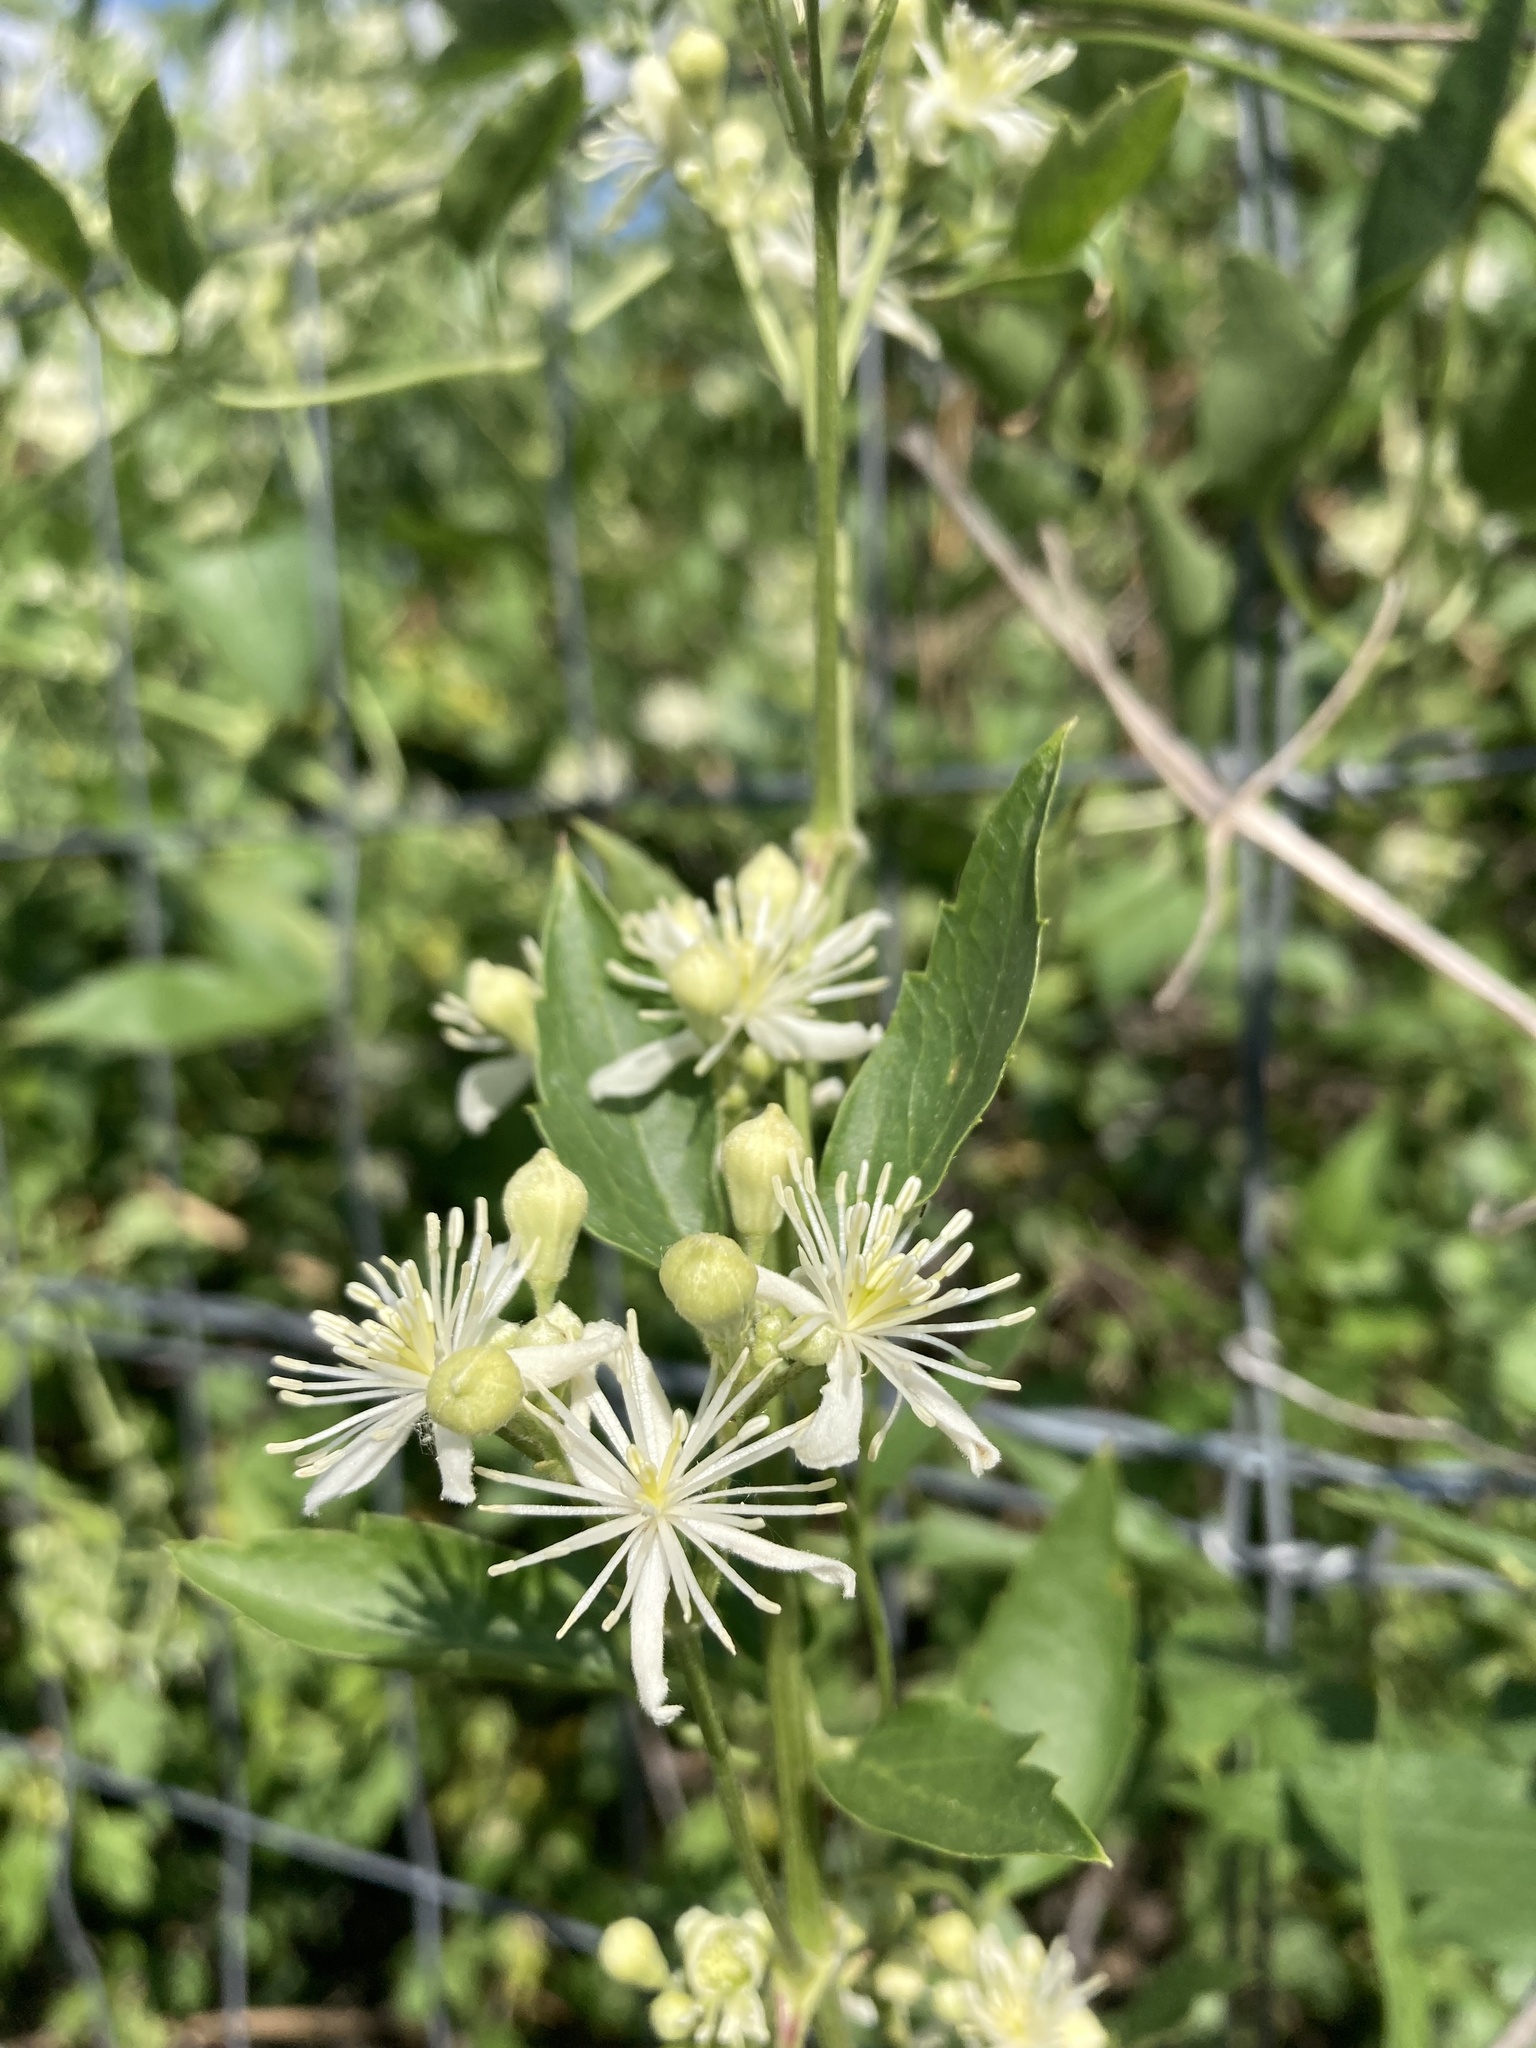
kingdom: Plantae
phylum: Tracheophyta
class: Magnoliopsida
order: Ranunculales
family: Ranunculaceae
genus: Clematis
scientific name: Clematis ligusticifolia
